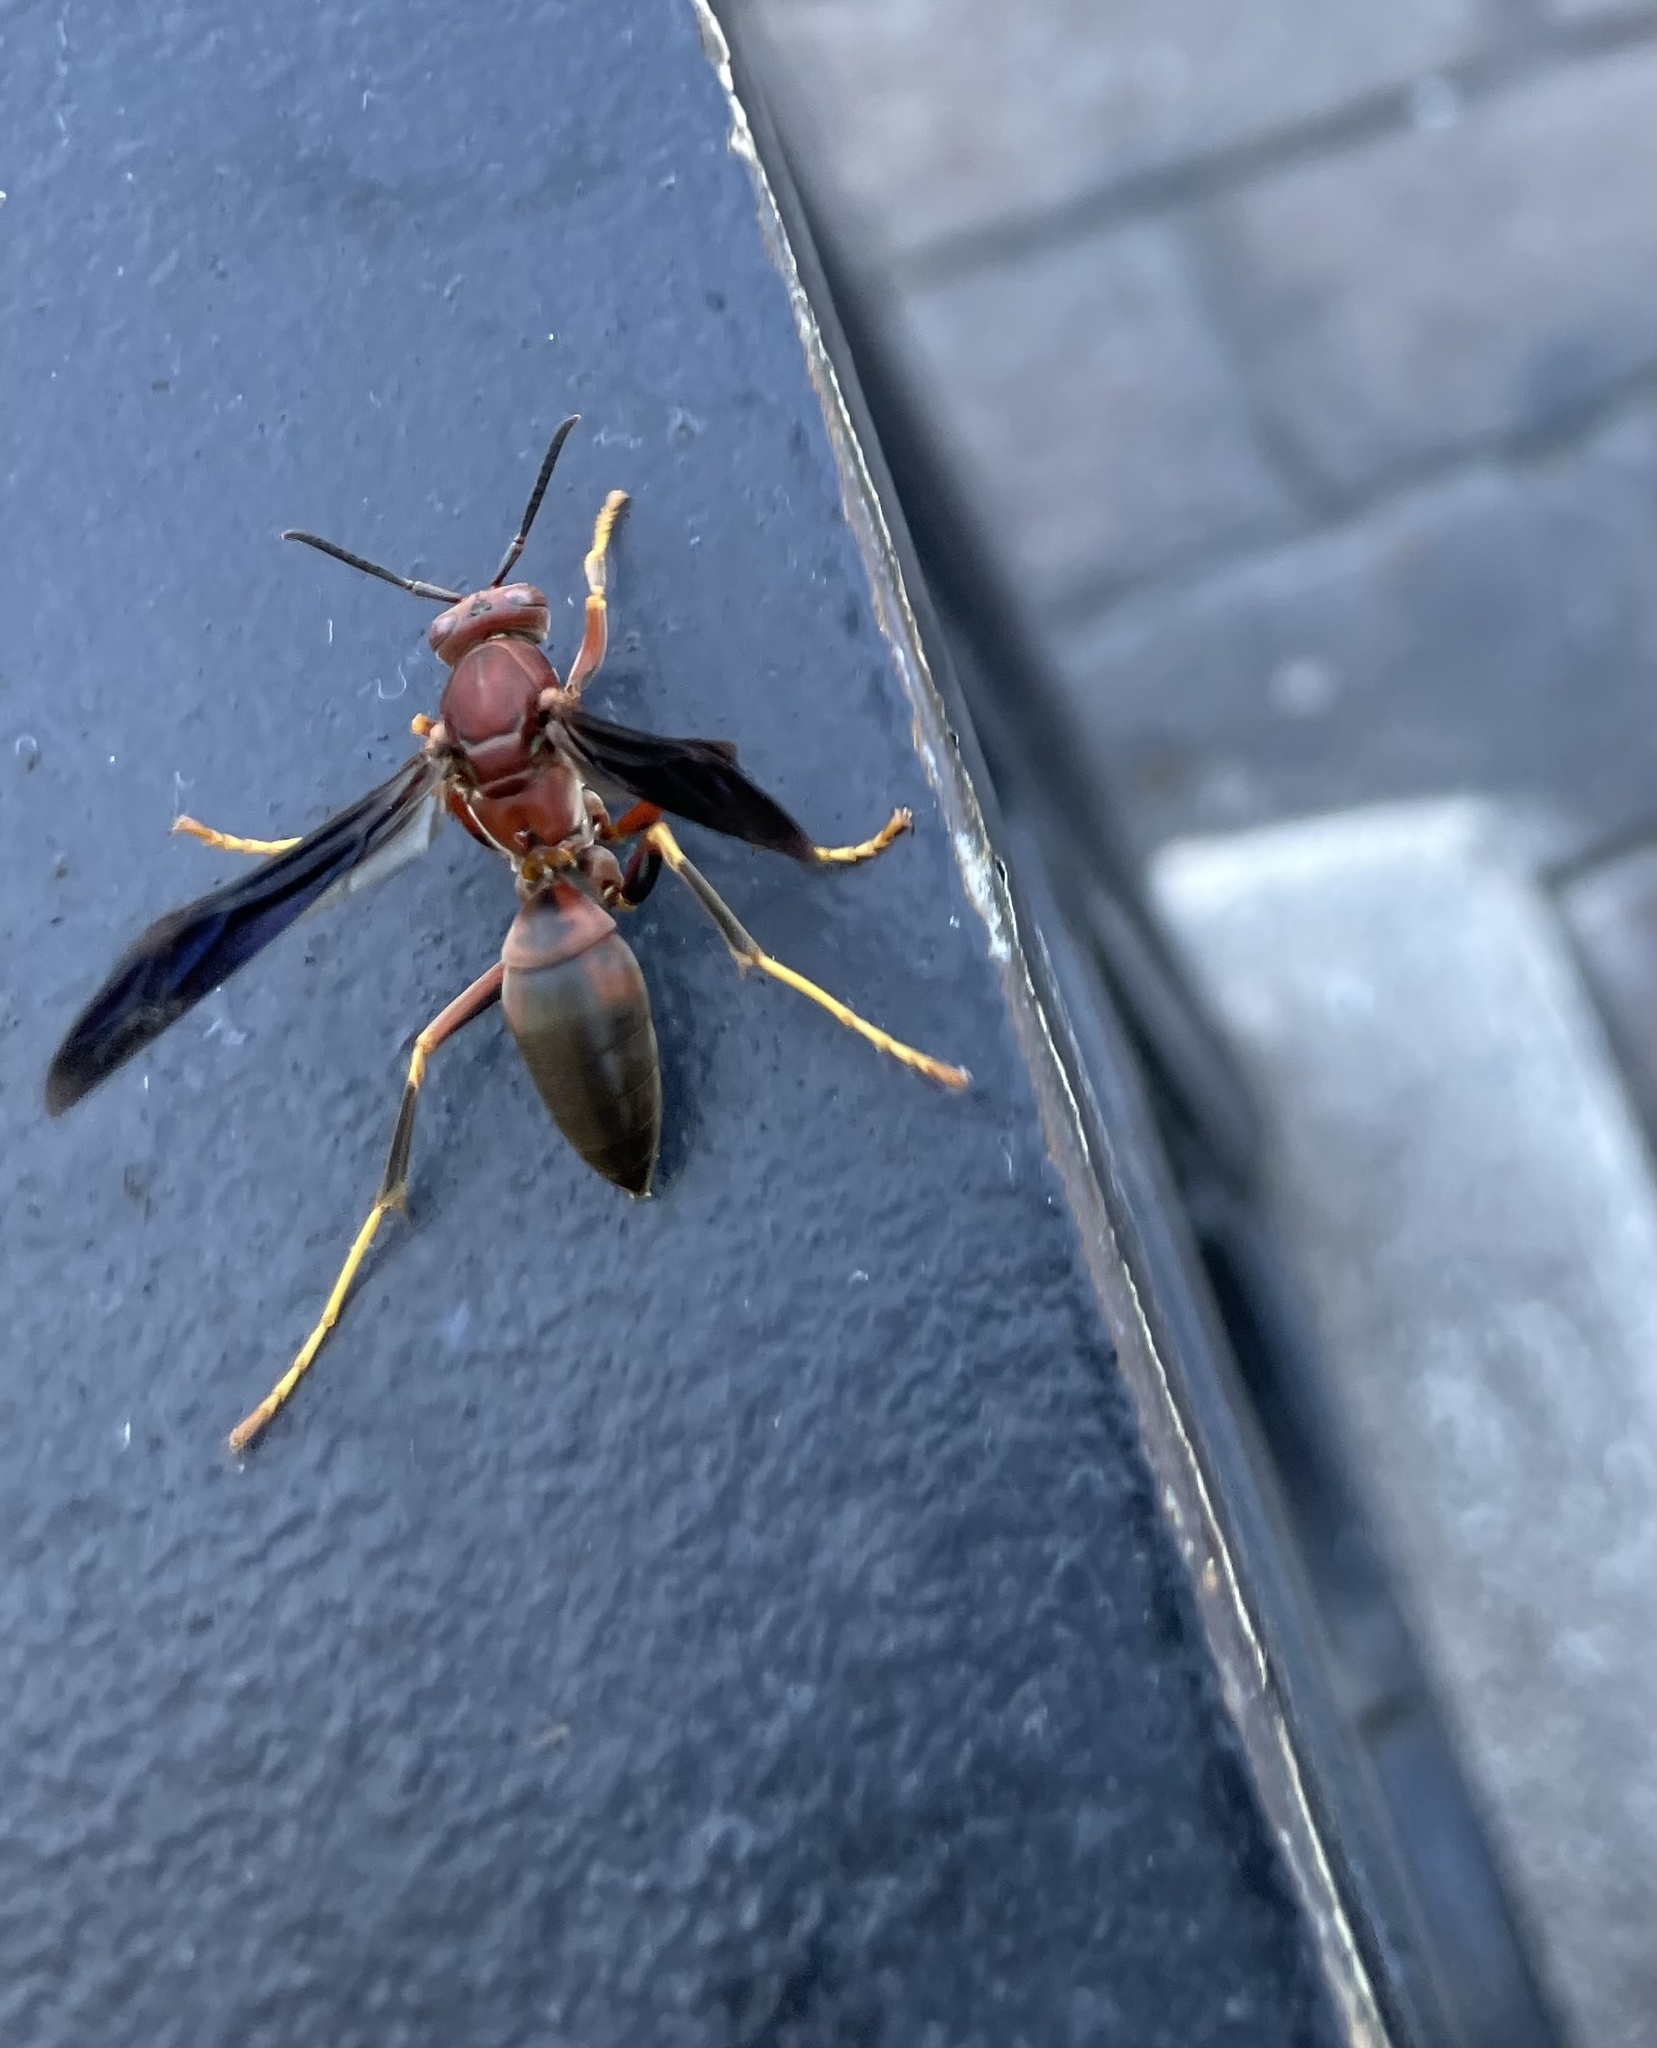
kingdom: Animalia
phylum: Arthropoda
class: Insecta
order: Hymenoptera
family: Eumenidae
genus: Polistes
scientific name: Polistes metricus
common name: Metric paper wasp
